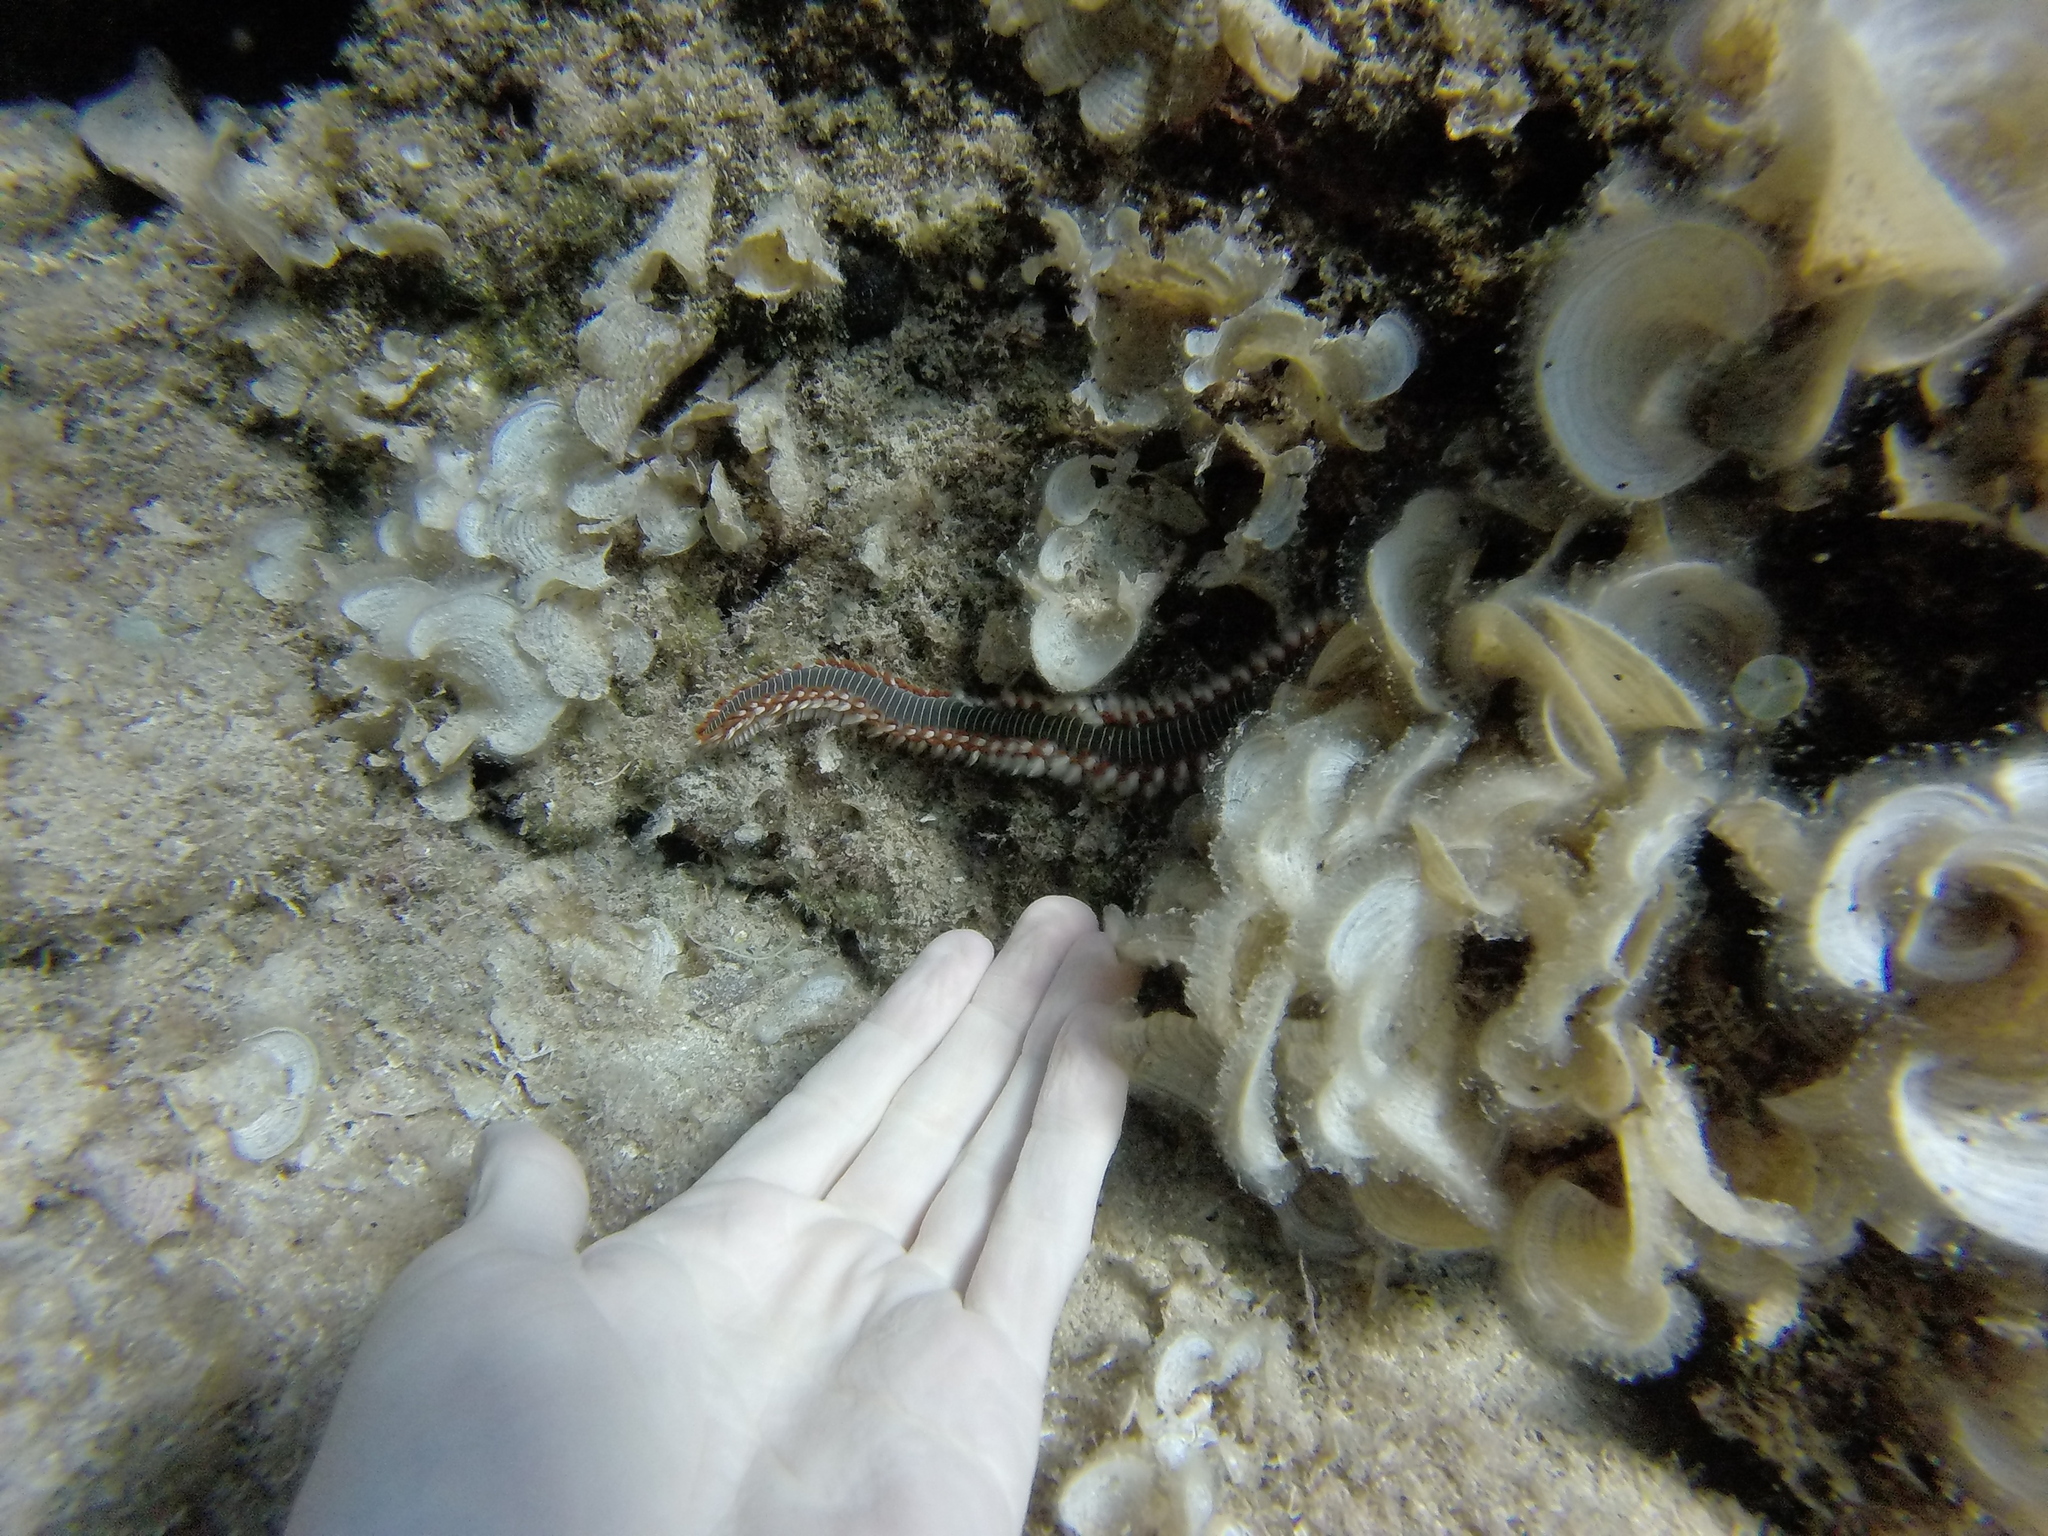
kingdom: Animalia
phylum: Annelida
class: Polychaeta
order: Amphinomida
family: Amphinomidae
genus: Hermodice
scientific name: Hermodice carunculata
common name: Bearded fireworm
